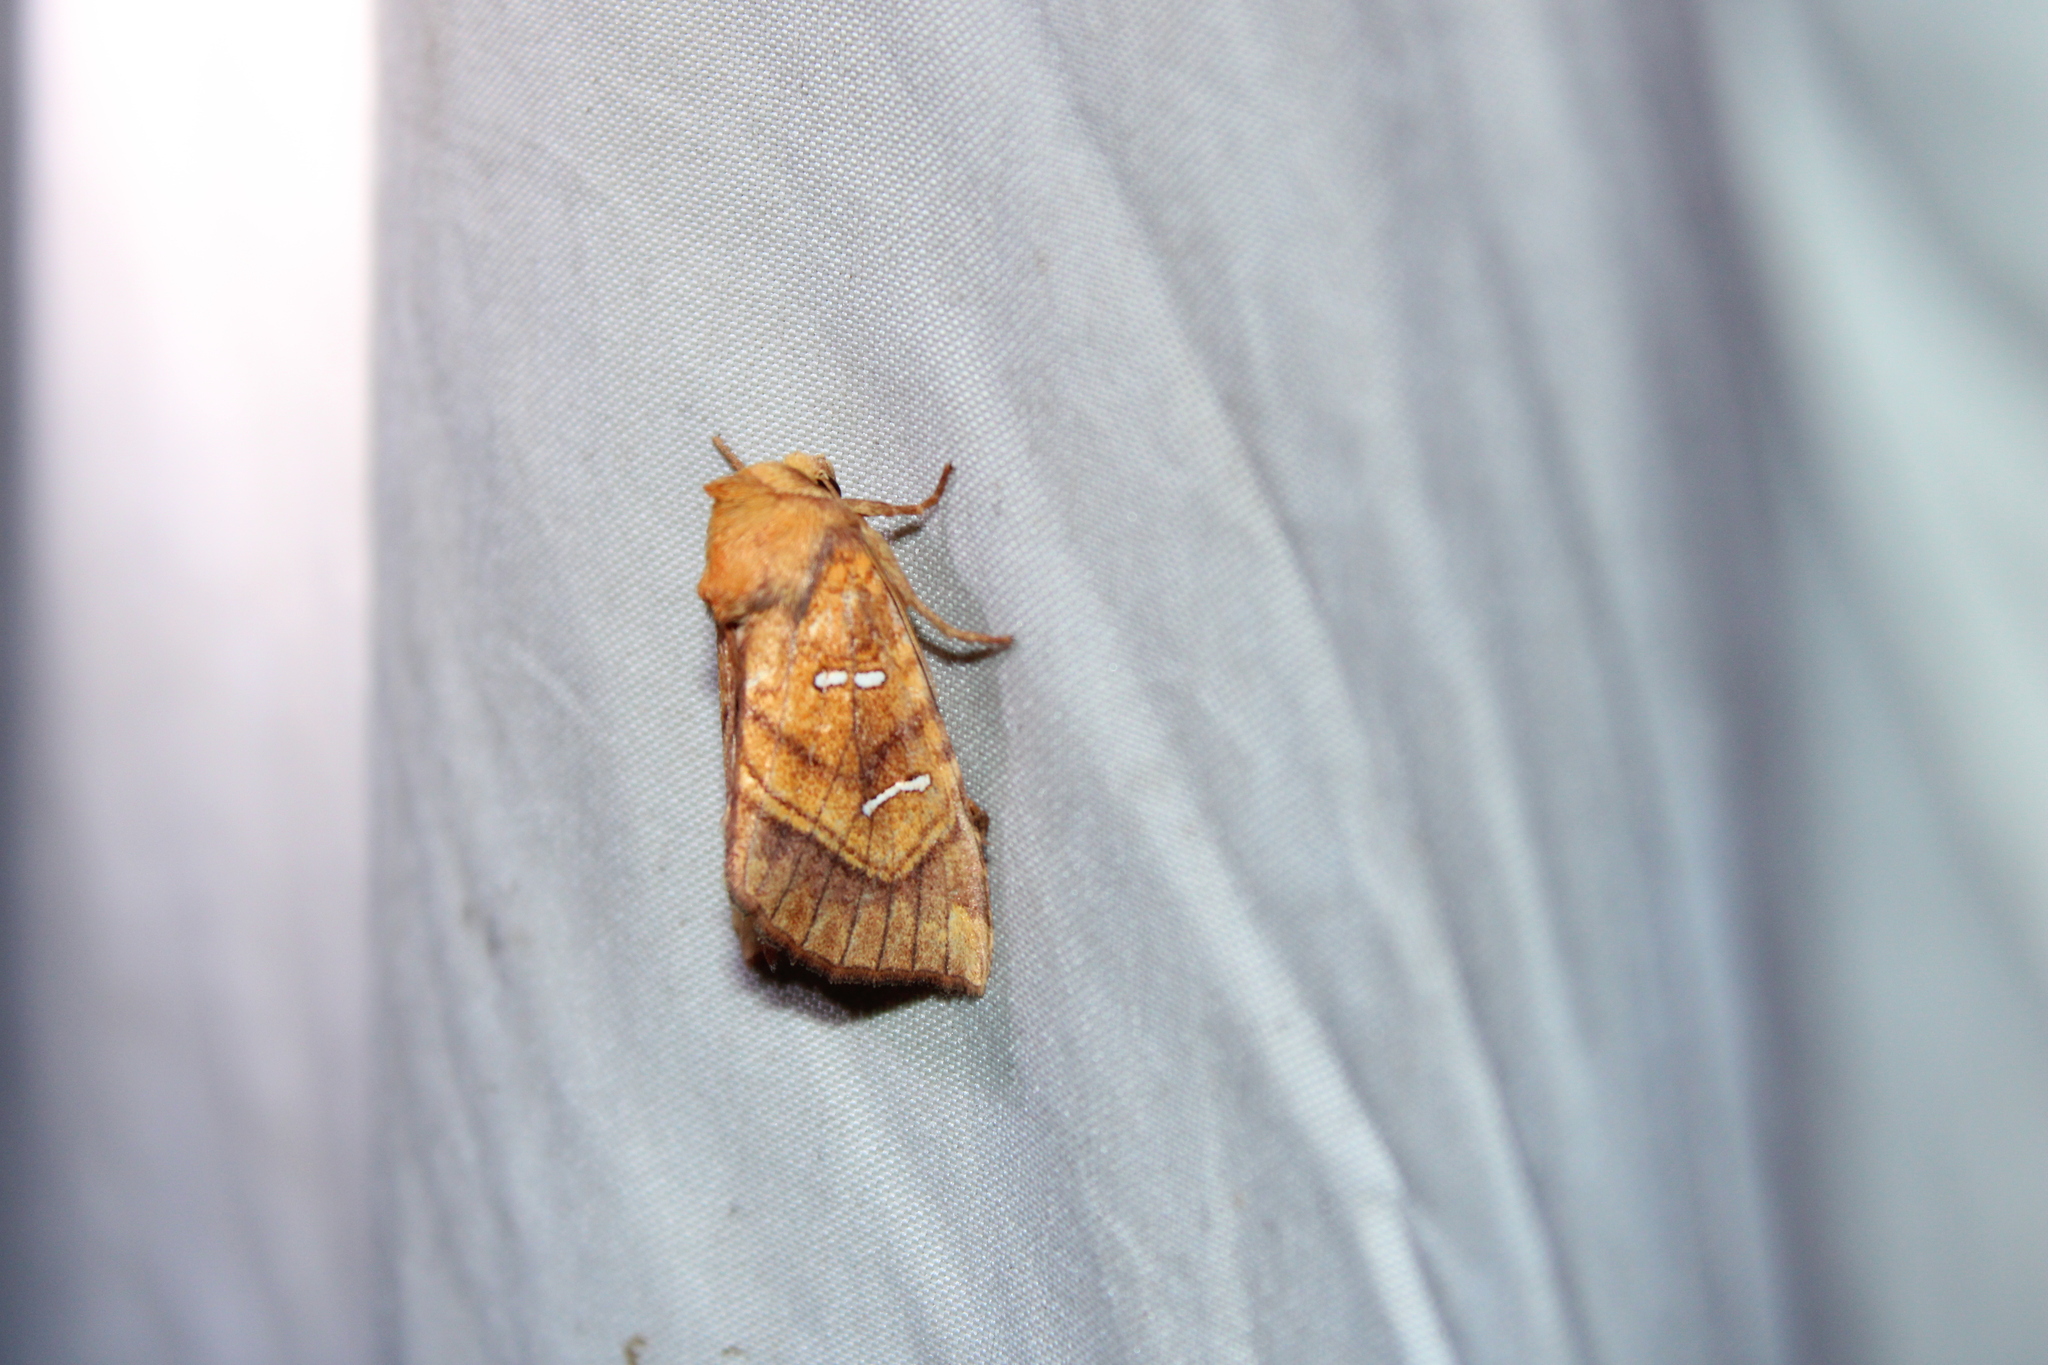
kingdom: Animalia
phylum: Arthropoda
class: Insecta
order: Lepidoptera
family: Noctuidae
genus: Papaipema
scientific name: Papaipema speciosissima
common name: Osmunda borer moth
